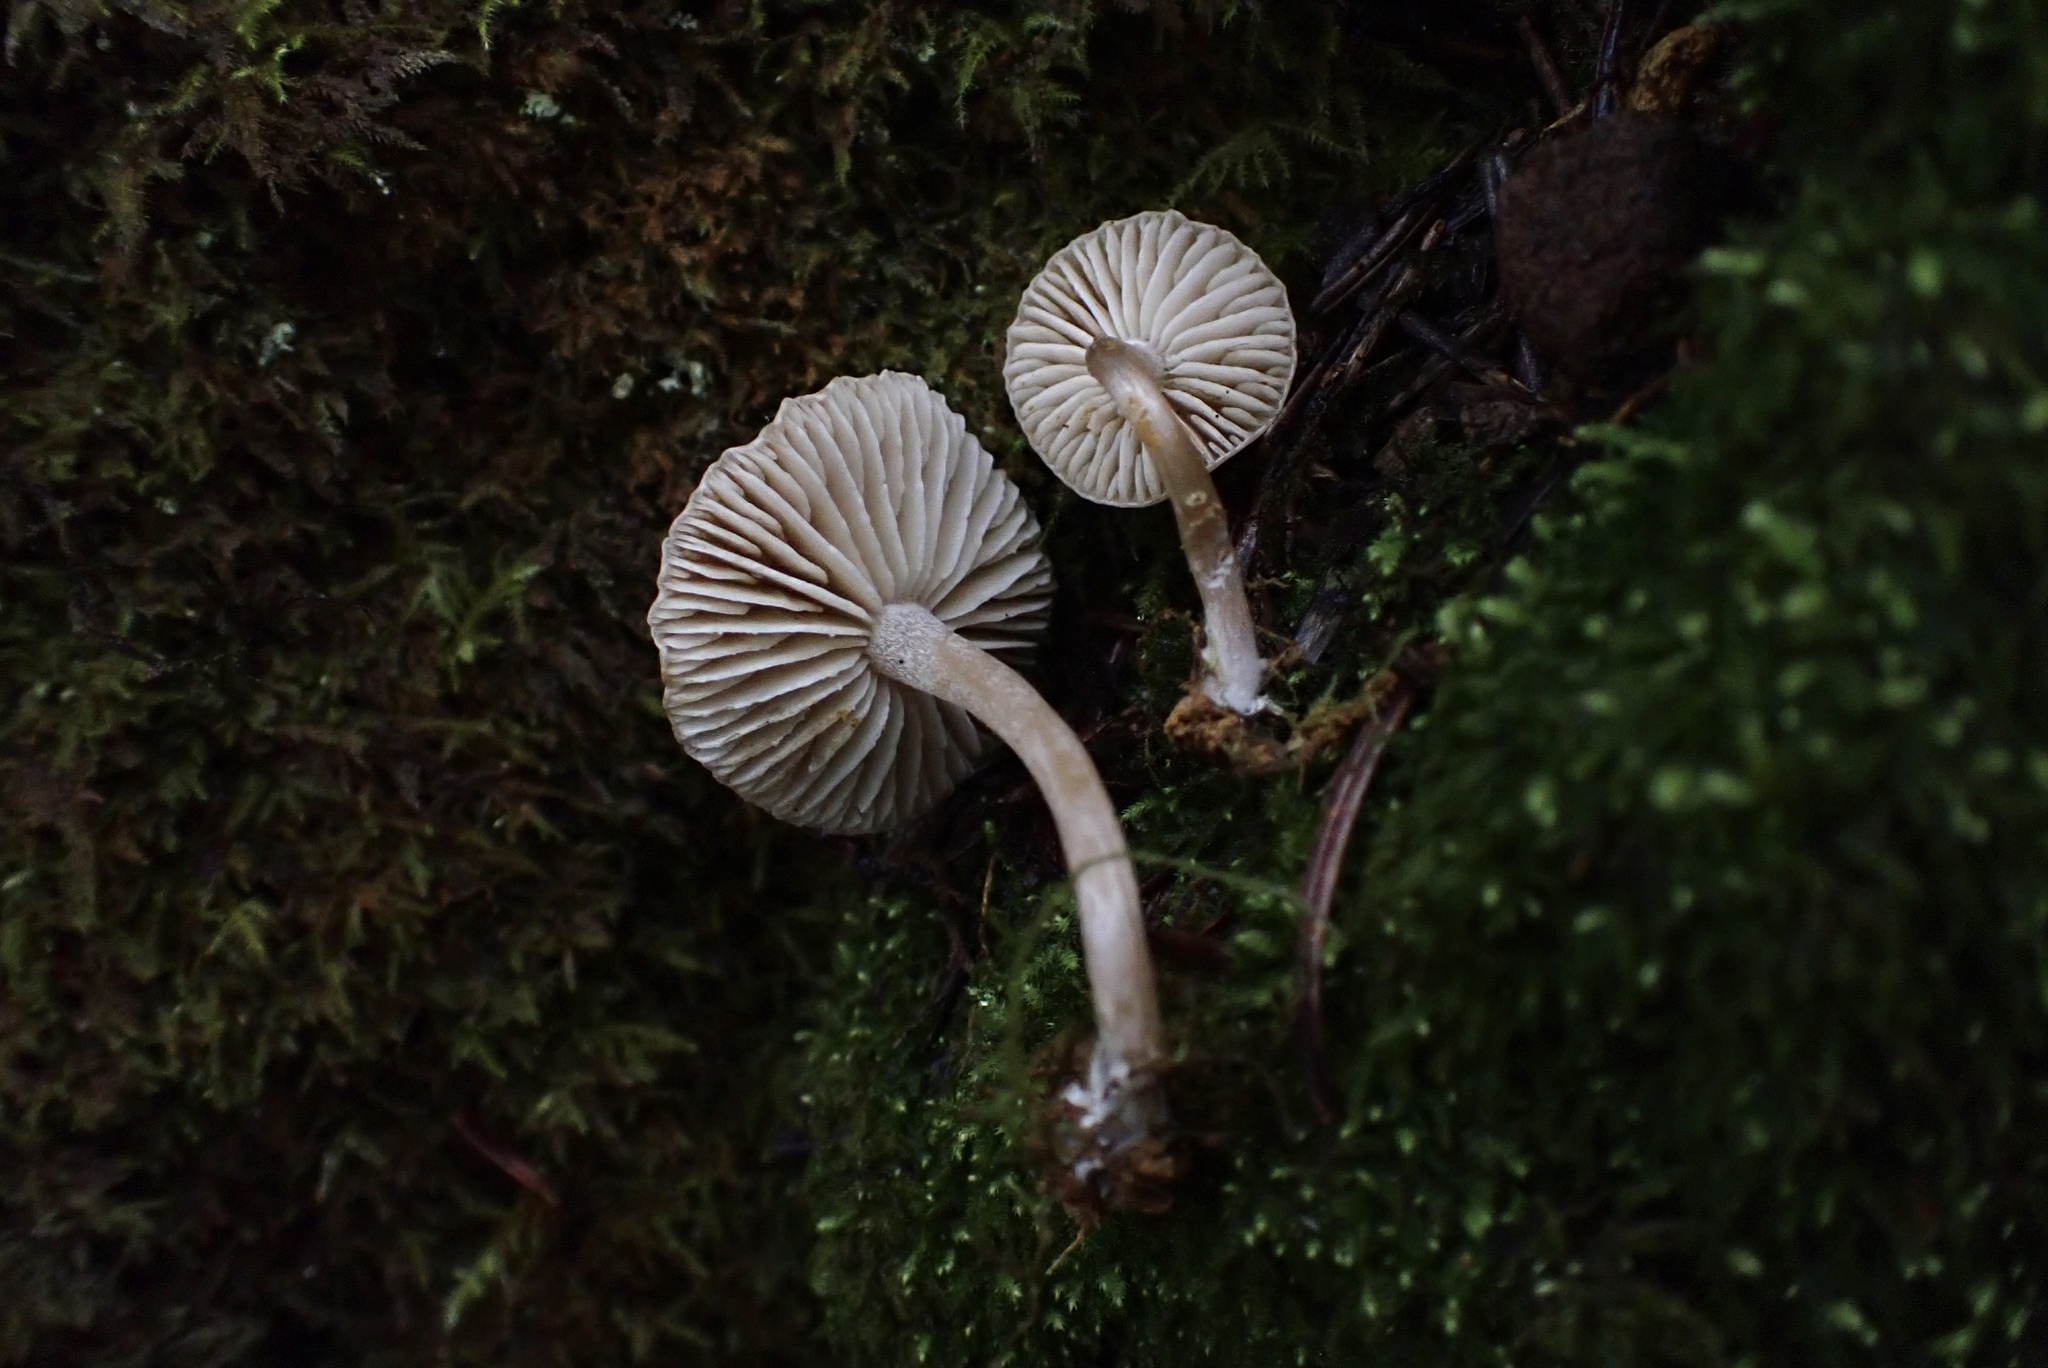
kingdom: Fungi
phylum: Basidiomycota
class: Agaricomycetes
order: Agaricales
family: Callistosporiaceae
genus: Pseudolaccaria
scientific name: Pseudolaccaria fellea
